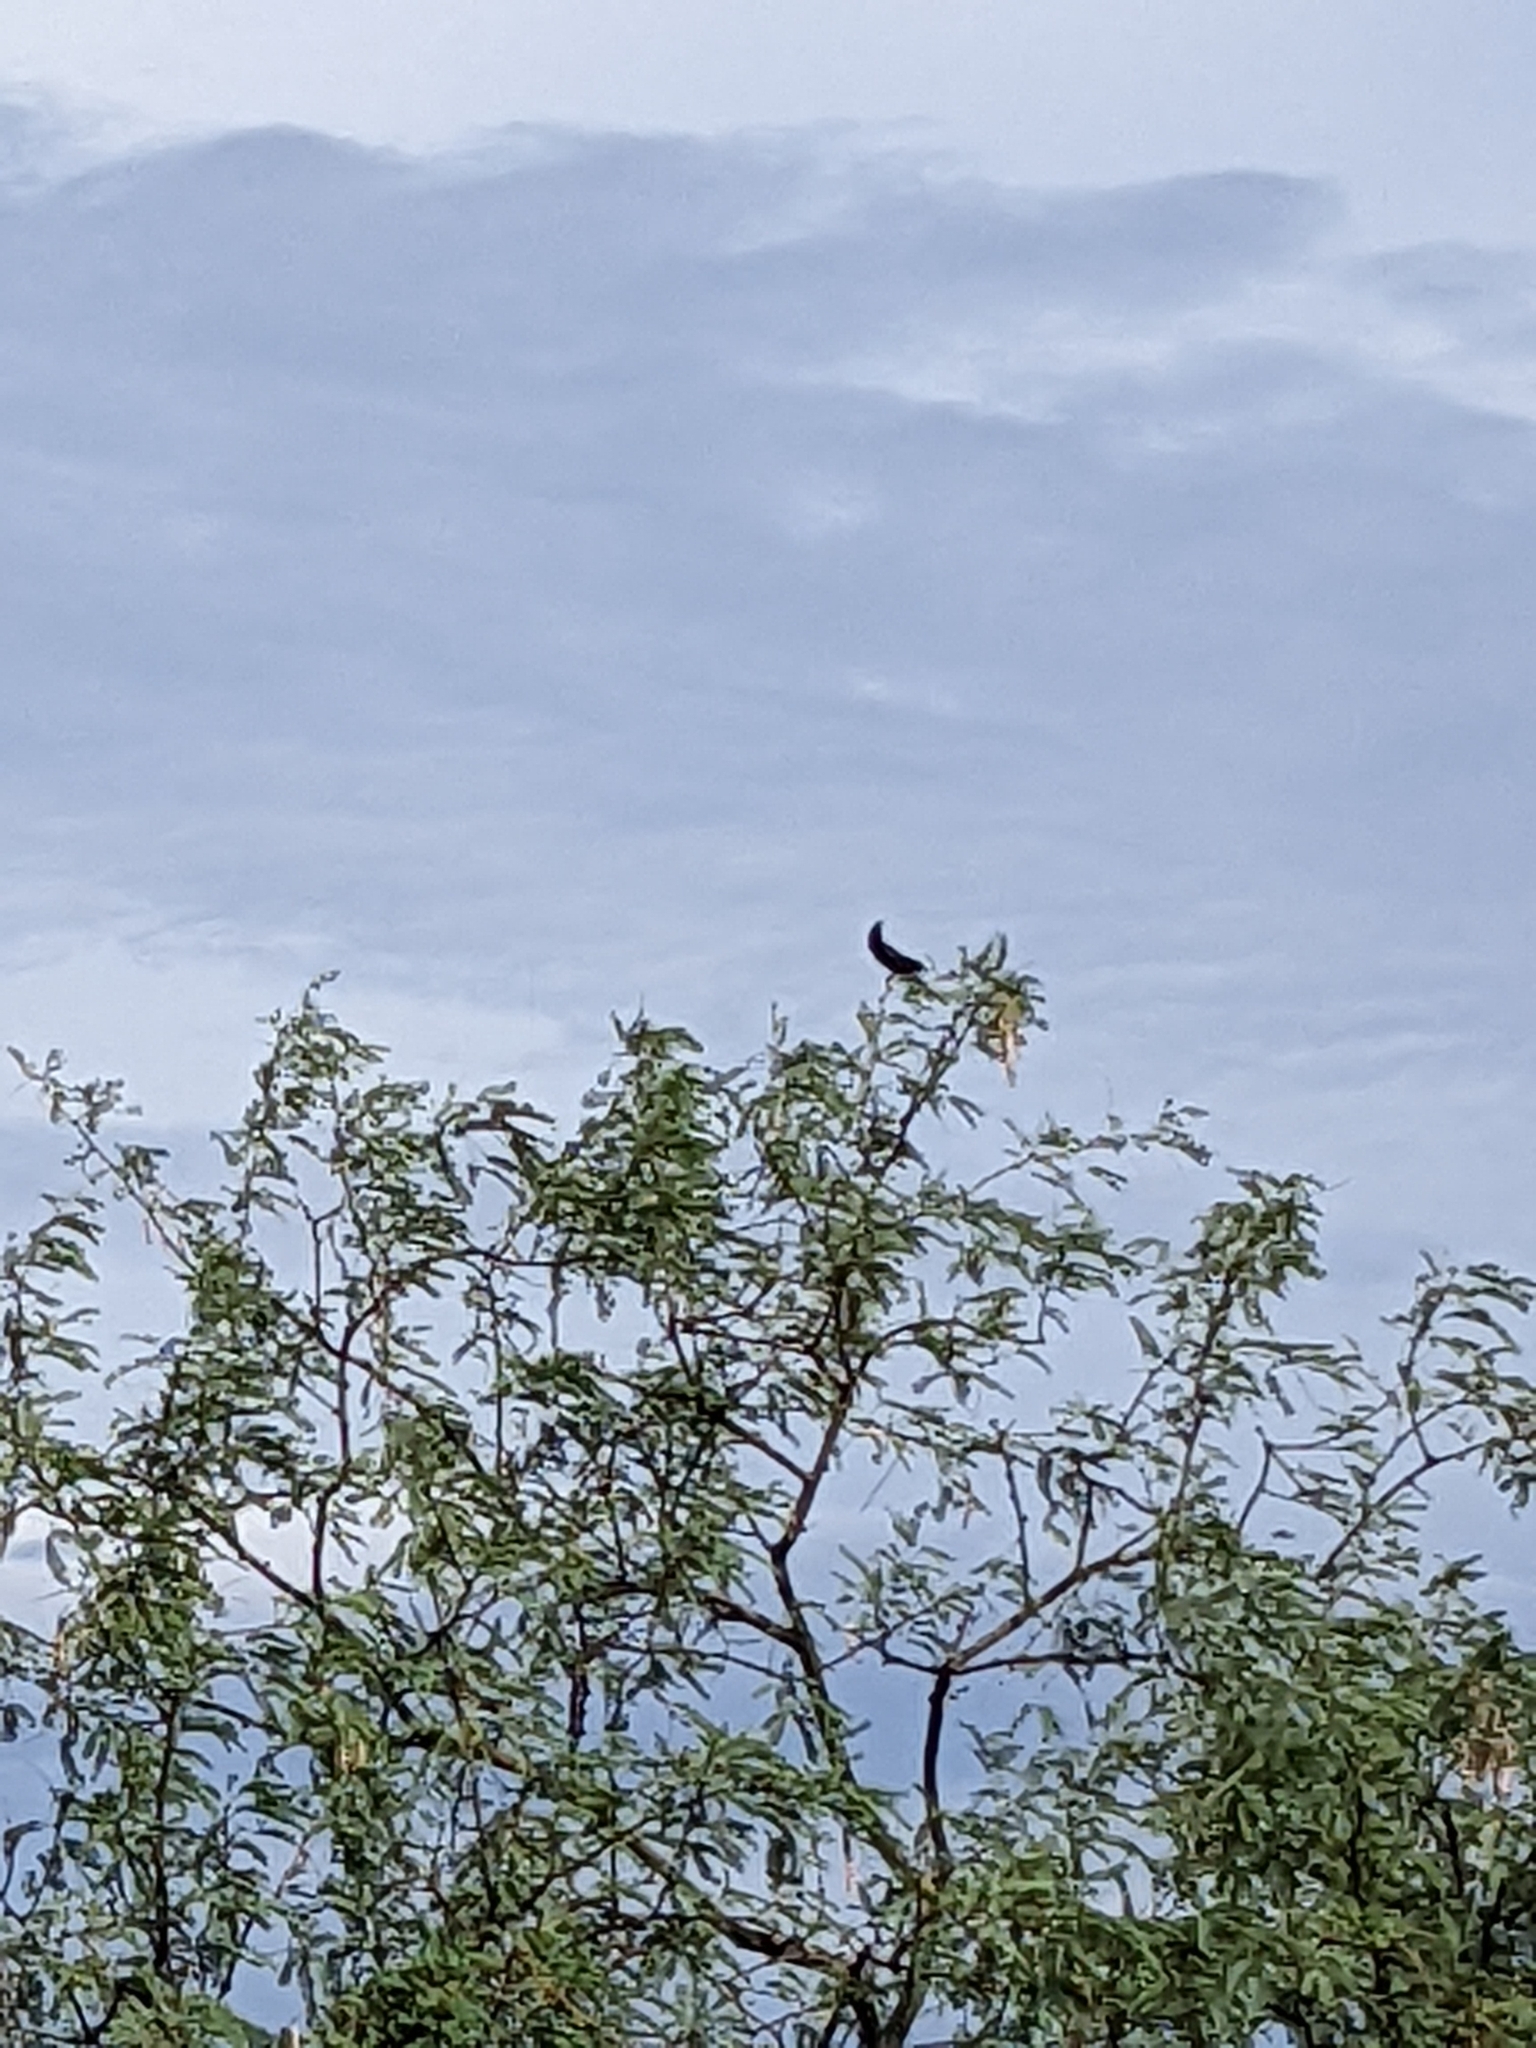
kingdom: Animalia
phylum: Chordata
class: Aves
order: Passeriformes
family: Ptilogonatidae
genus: Phainopepla
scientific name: Phainopepla nitens
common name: Phainopepla
